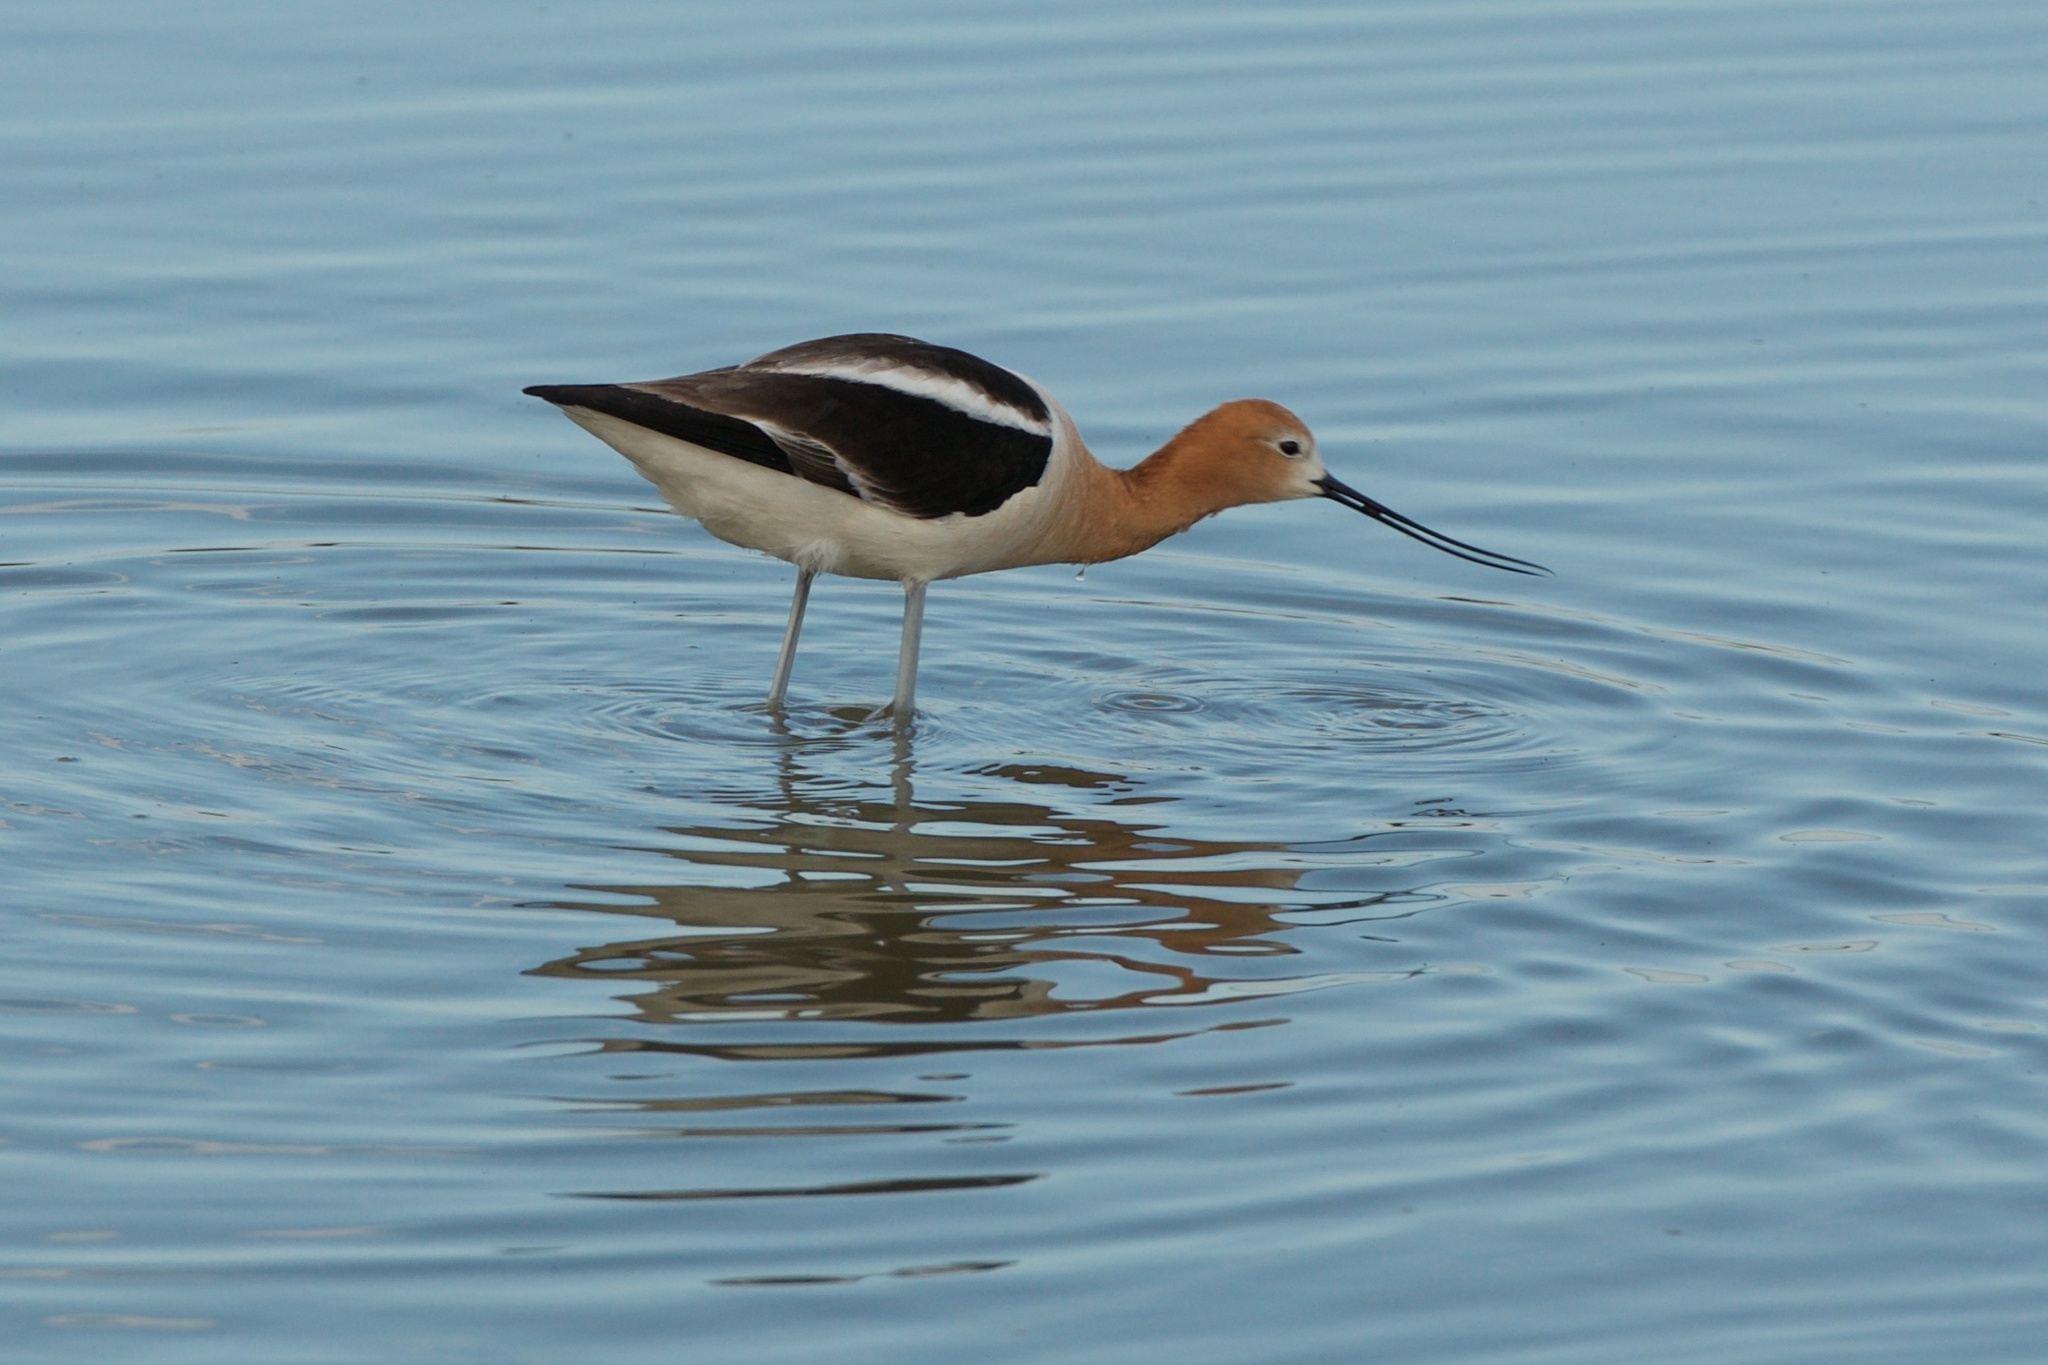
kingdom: Animalia
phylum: Chordata
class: Aves
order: Charadriiformes
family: Recurvirostridae
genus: Recurvirostra
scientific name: Recurvirostra americana
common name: American avocet
